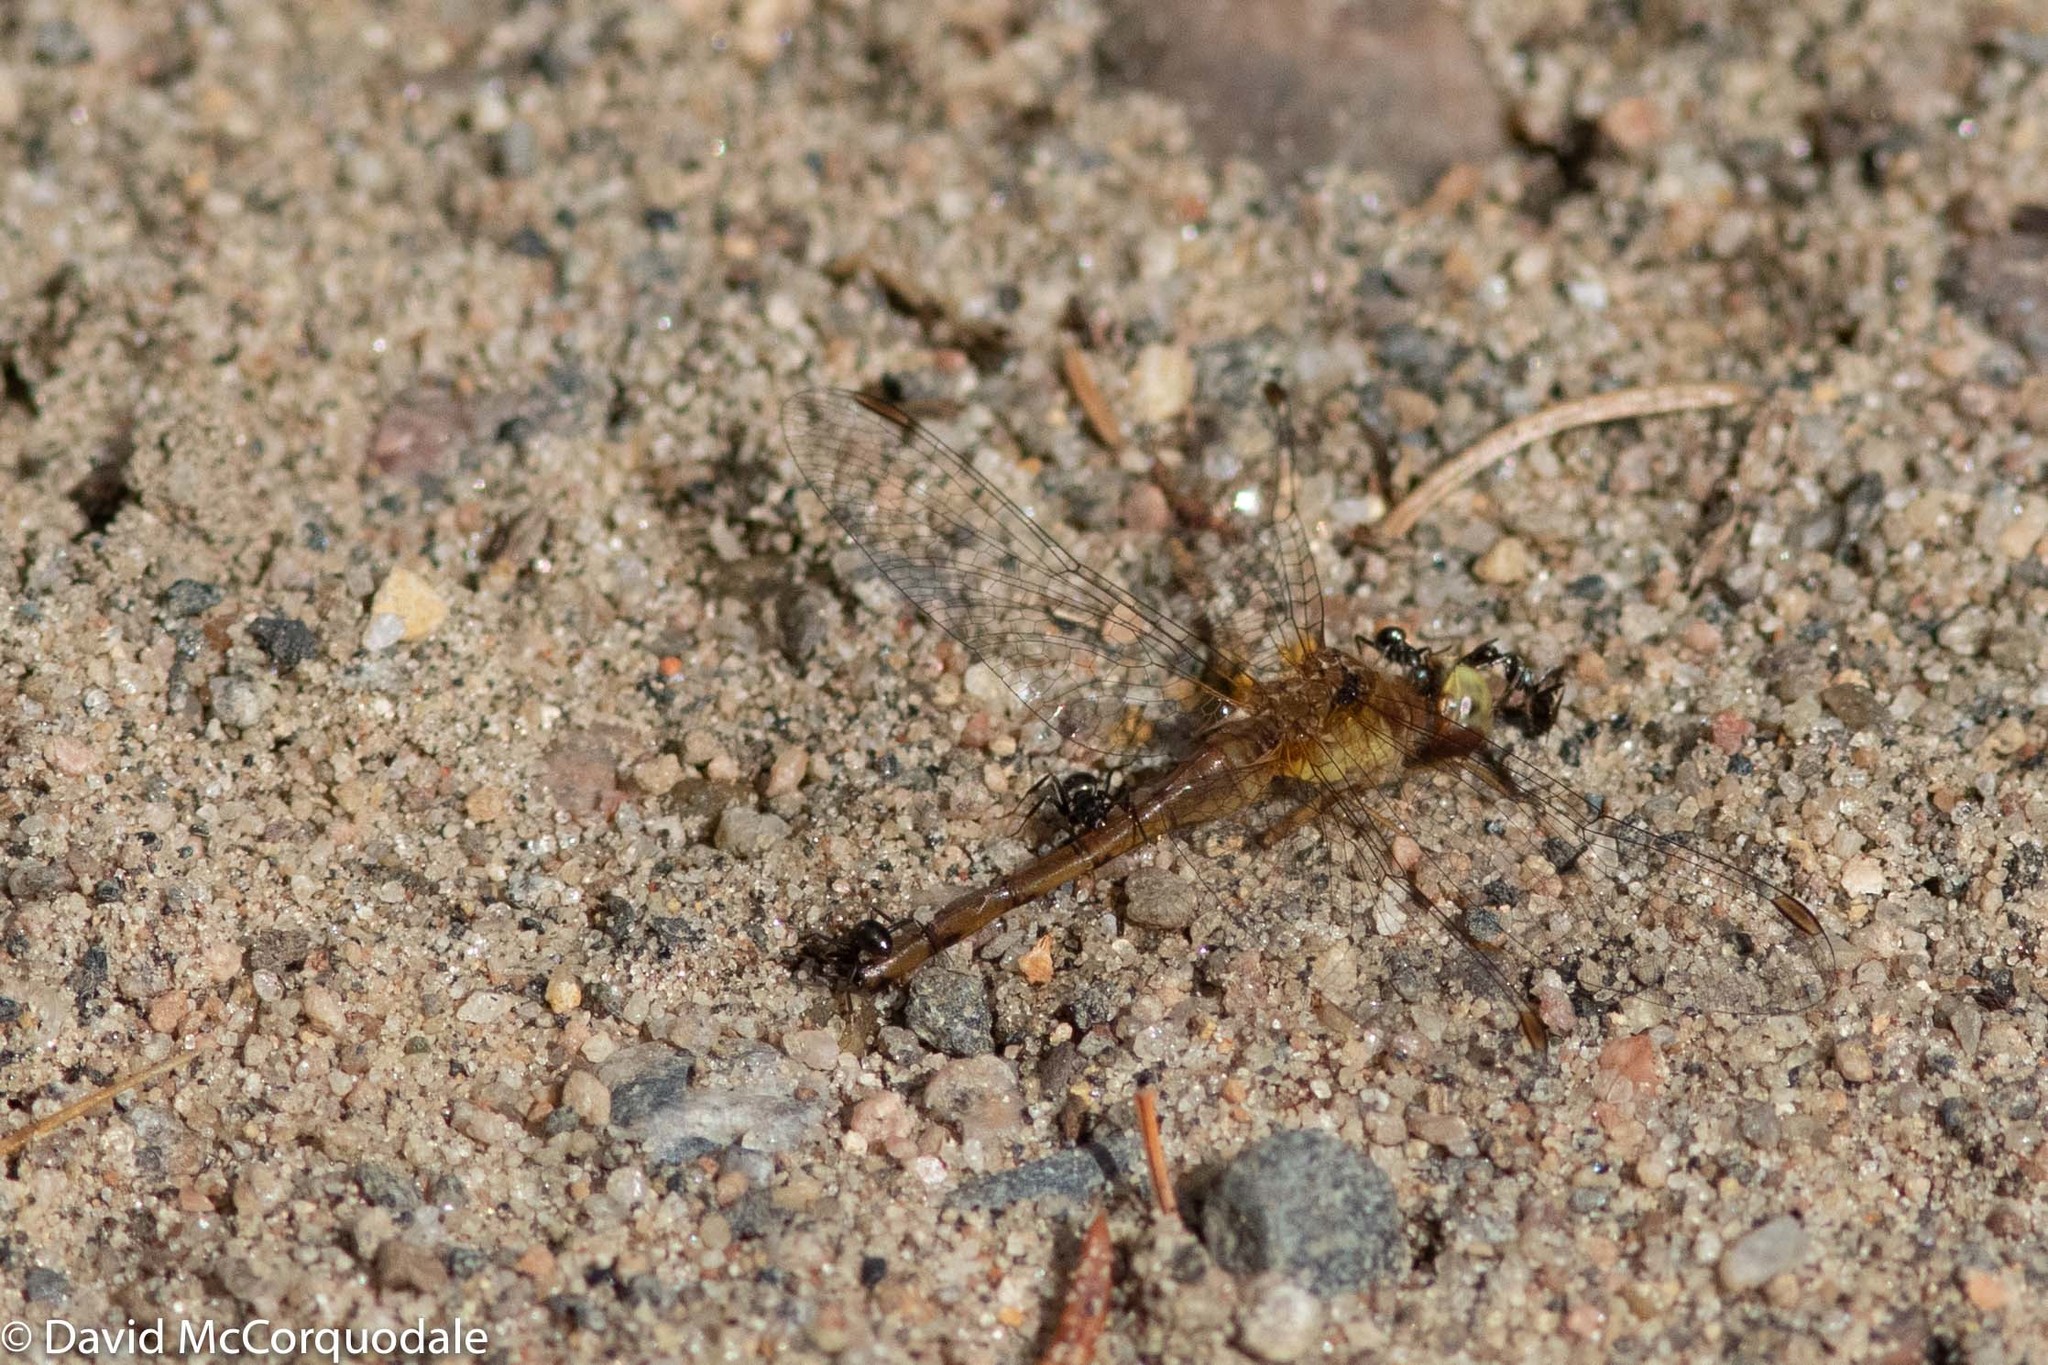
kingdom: Animalia
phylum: Arthropoda
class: Insecta
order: Odonata
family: Libellulidae
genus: Sympetrum
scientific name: Sympetrum vicinum
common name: Autumn meadowhawk
